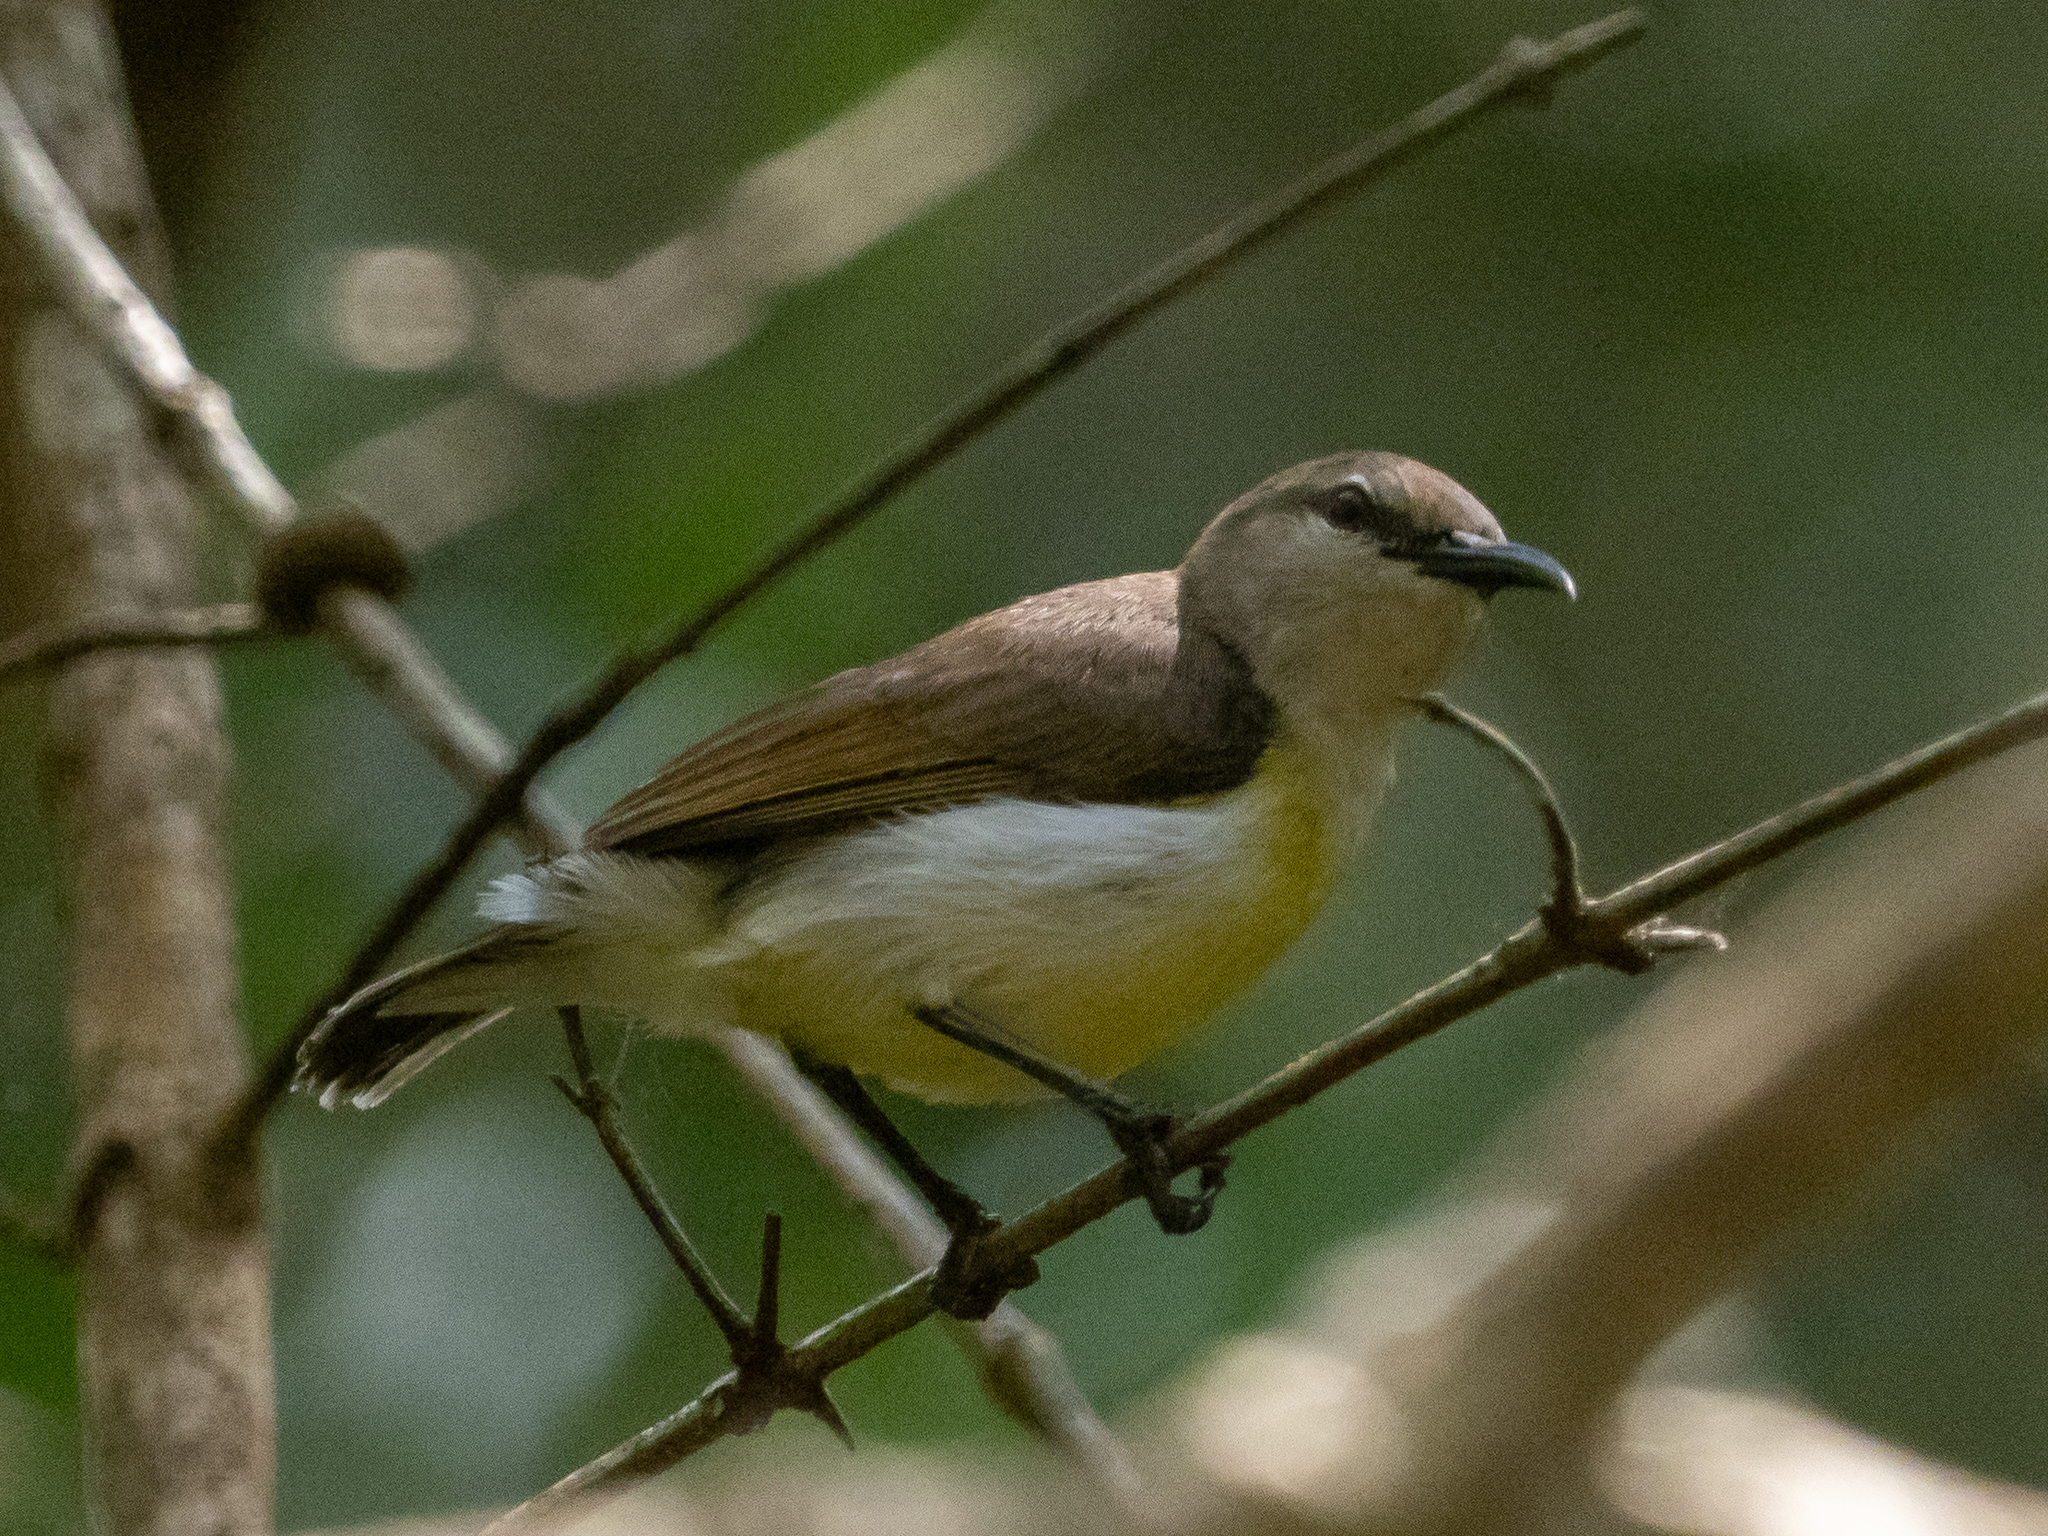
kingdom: Animalia
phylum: Chordata
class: Aves
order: Passeriformes
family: Nectariniidae
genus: Leptocoma
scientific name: Leptocoma zeylonica
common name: Purple-rumped sunbird
